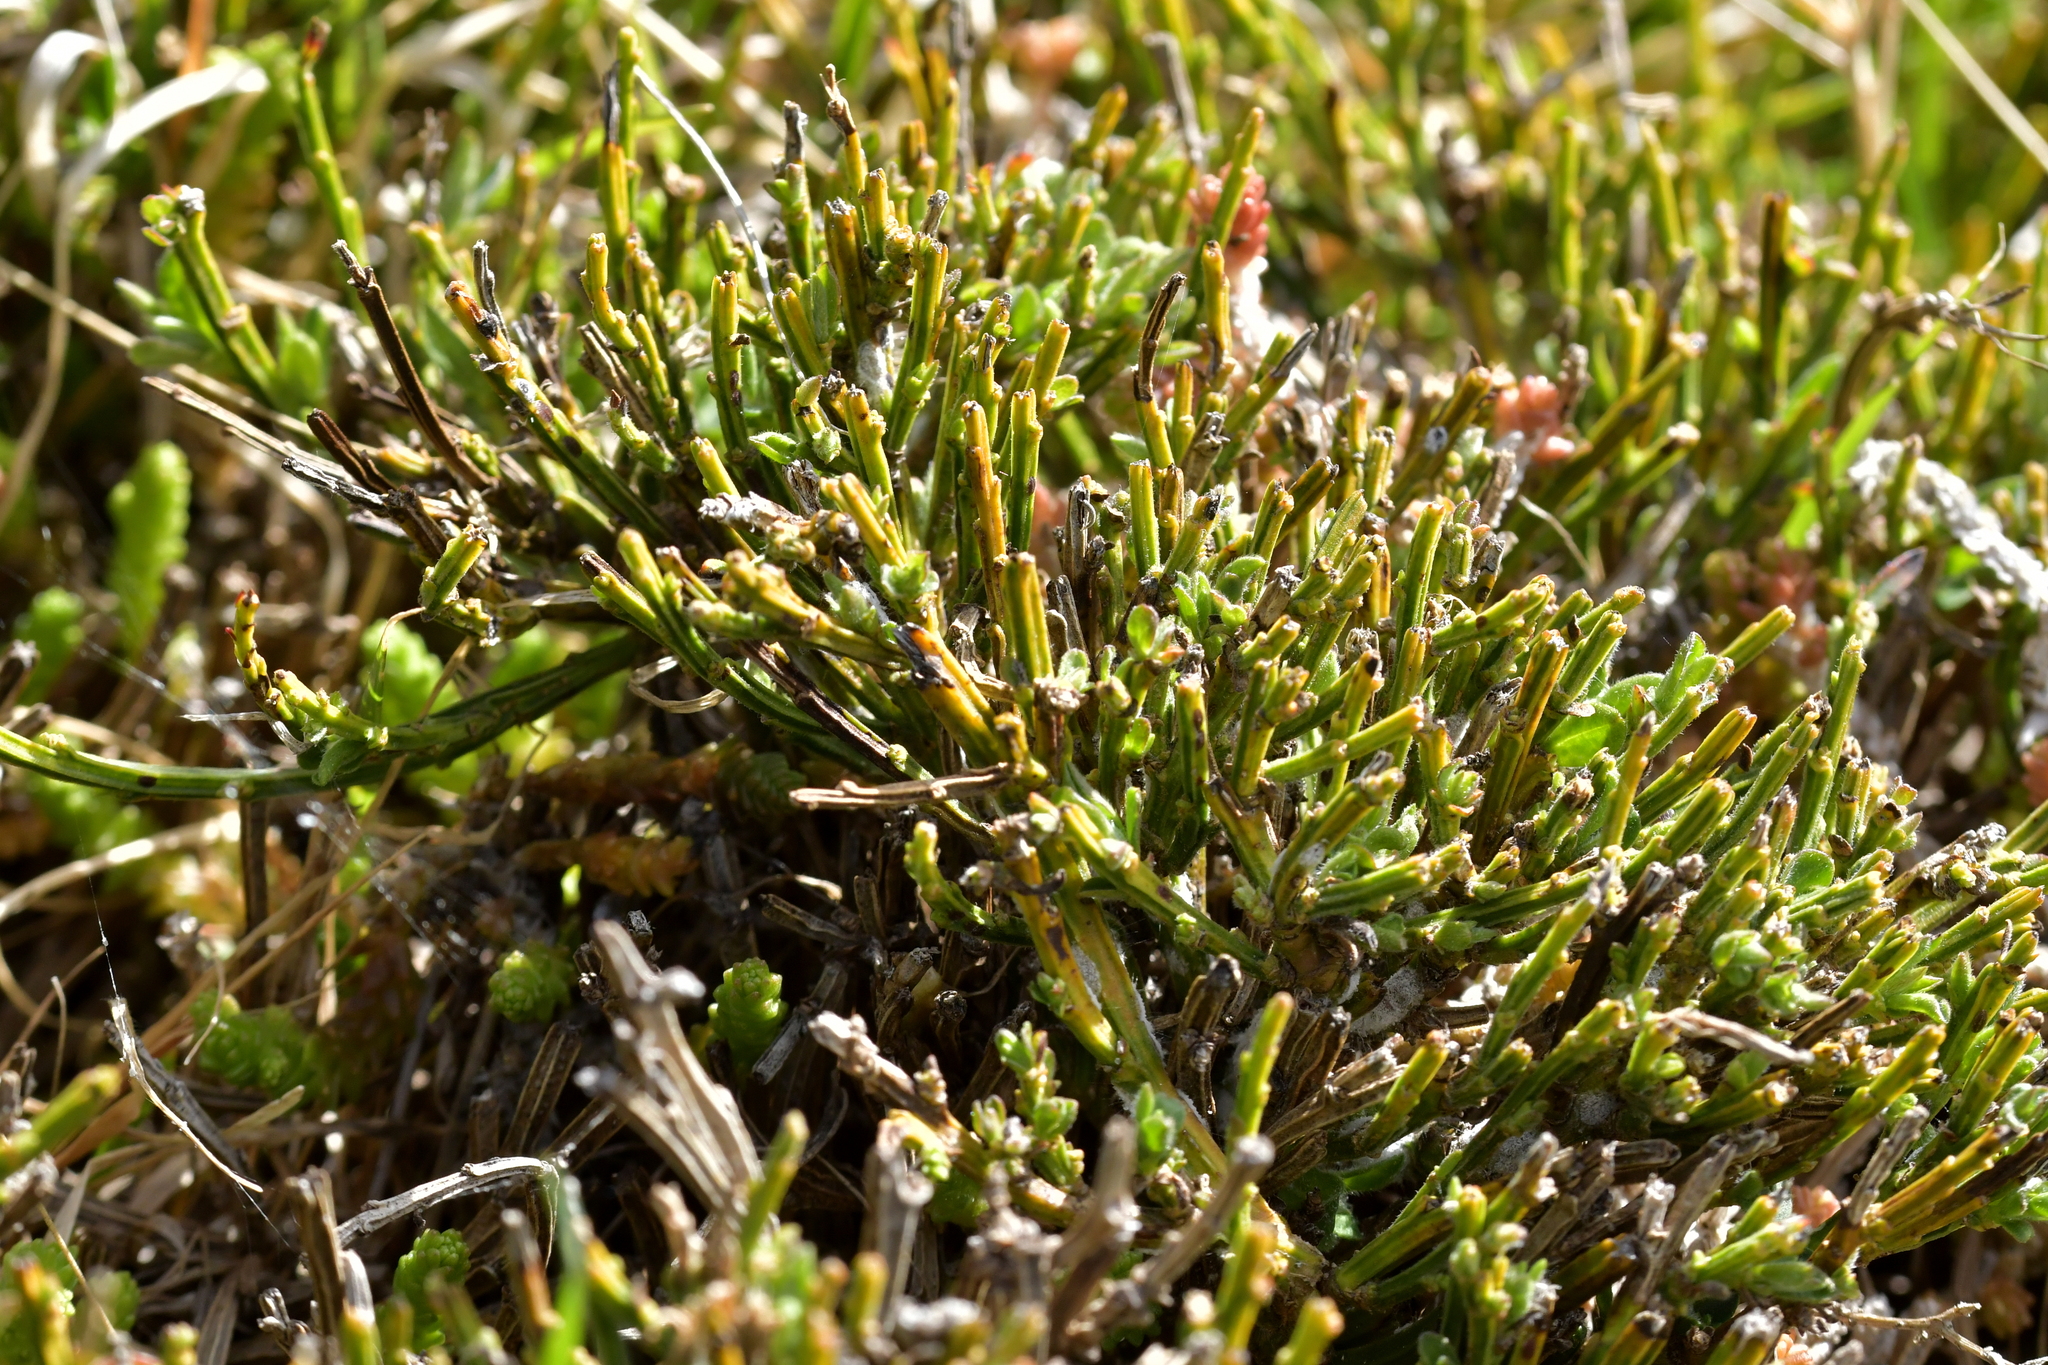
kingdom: Plantae
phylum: Tracheophyta
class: Magnoliopsida
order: Fabales
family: Fabaceae
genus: Cytisus
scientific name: Cytisus scoparius
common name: Scotch broom
